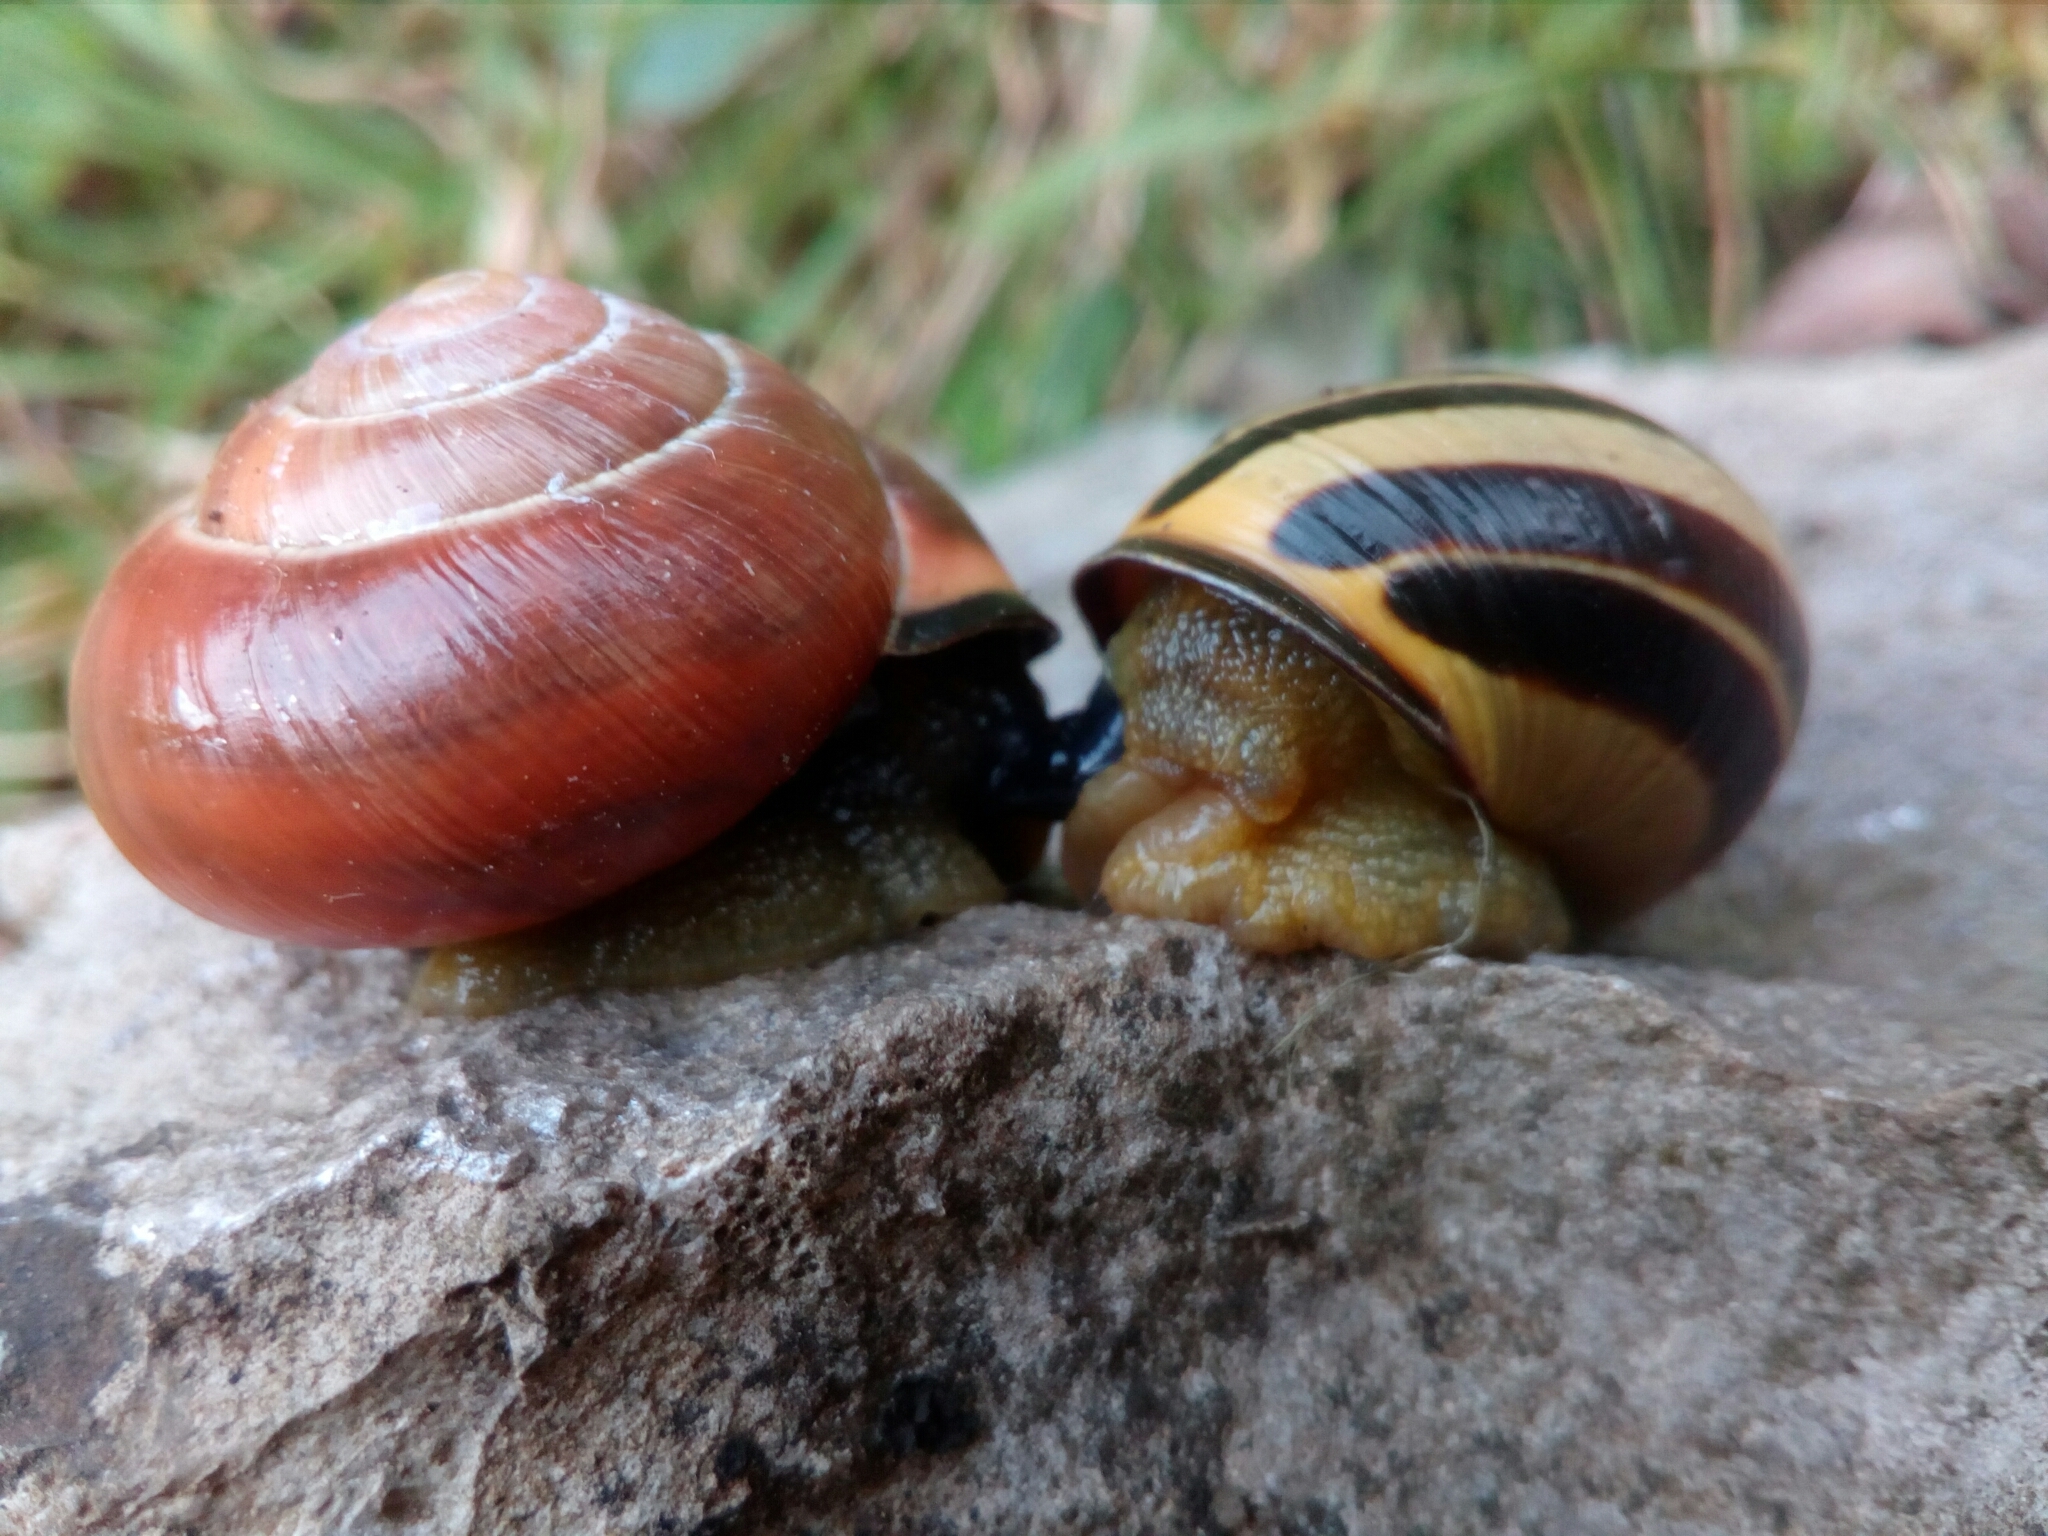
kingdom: Animalia
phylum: Mollusca
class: Gastropoda
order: Stylommatophora
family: Helicidae
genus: Cepaea
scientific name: Cepaea nemoralis
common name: Grovesnail
